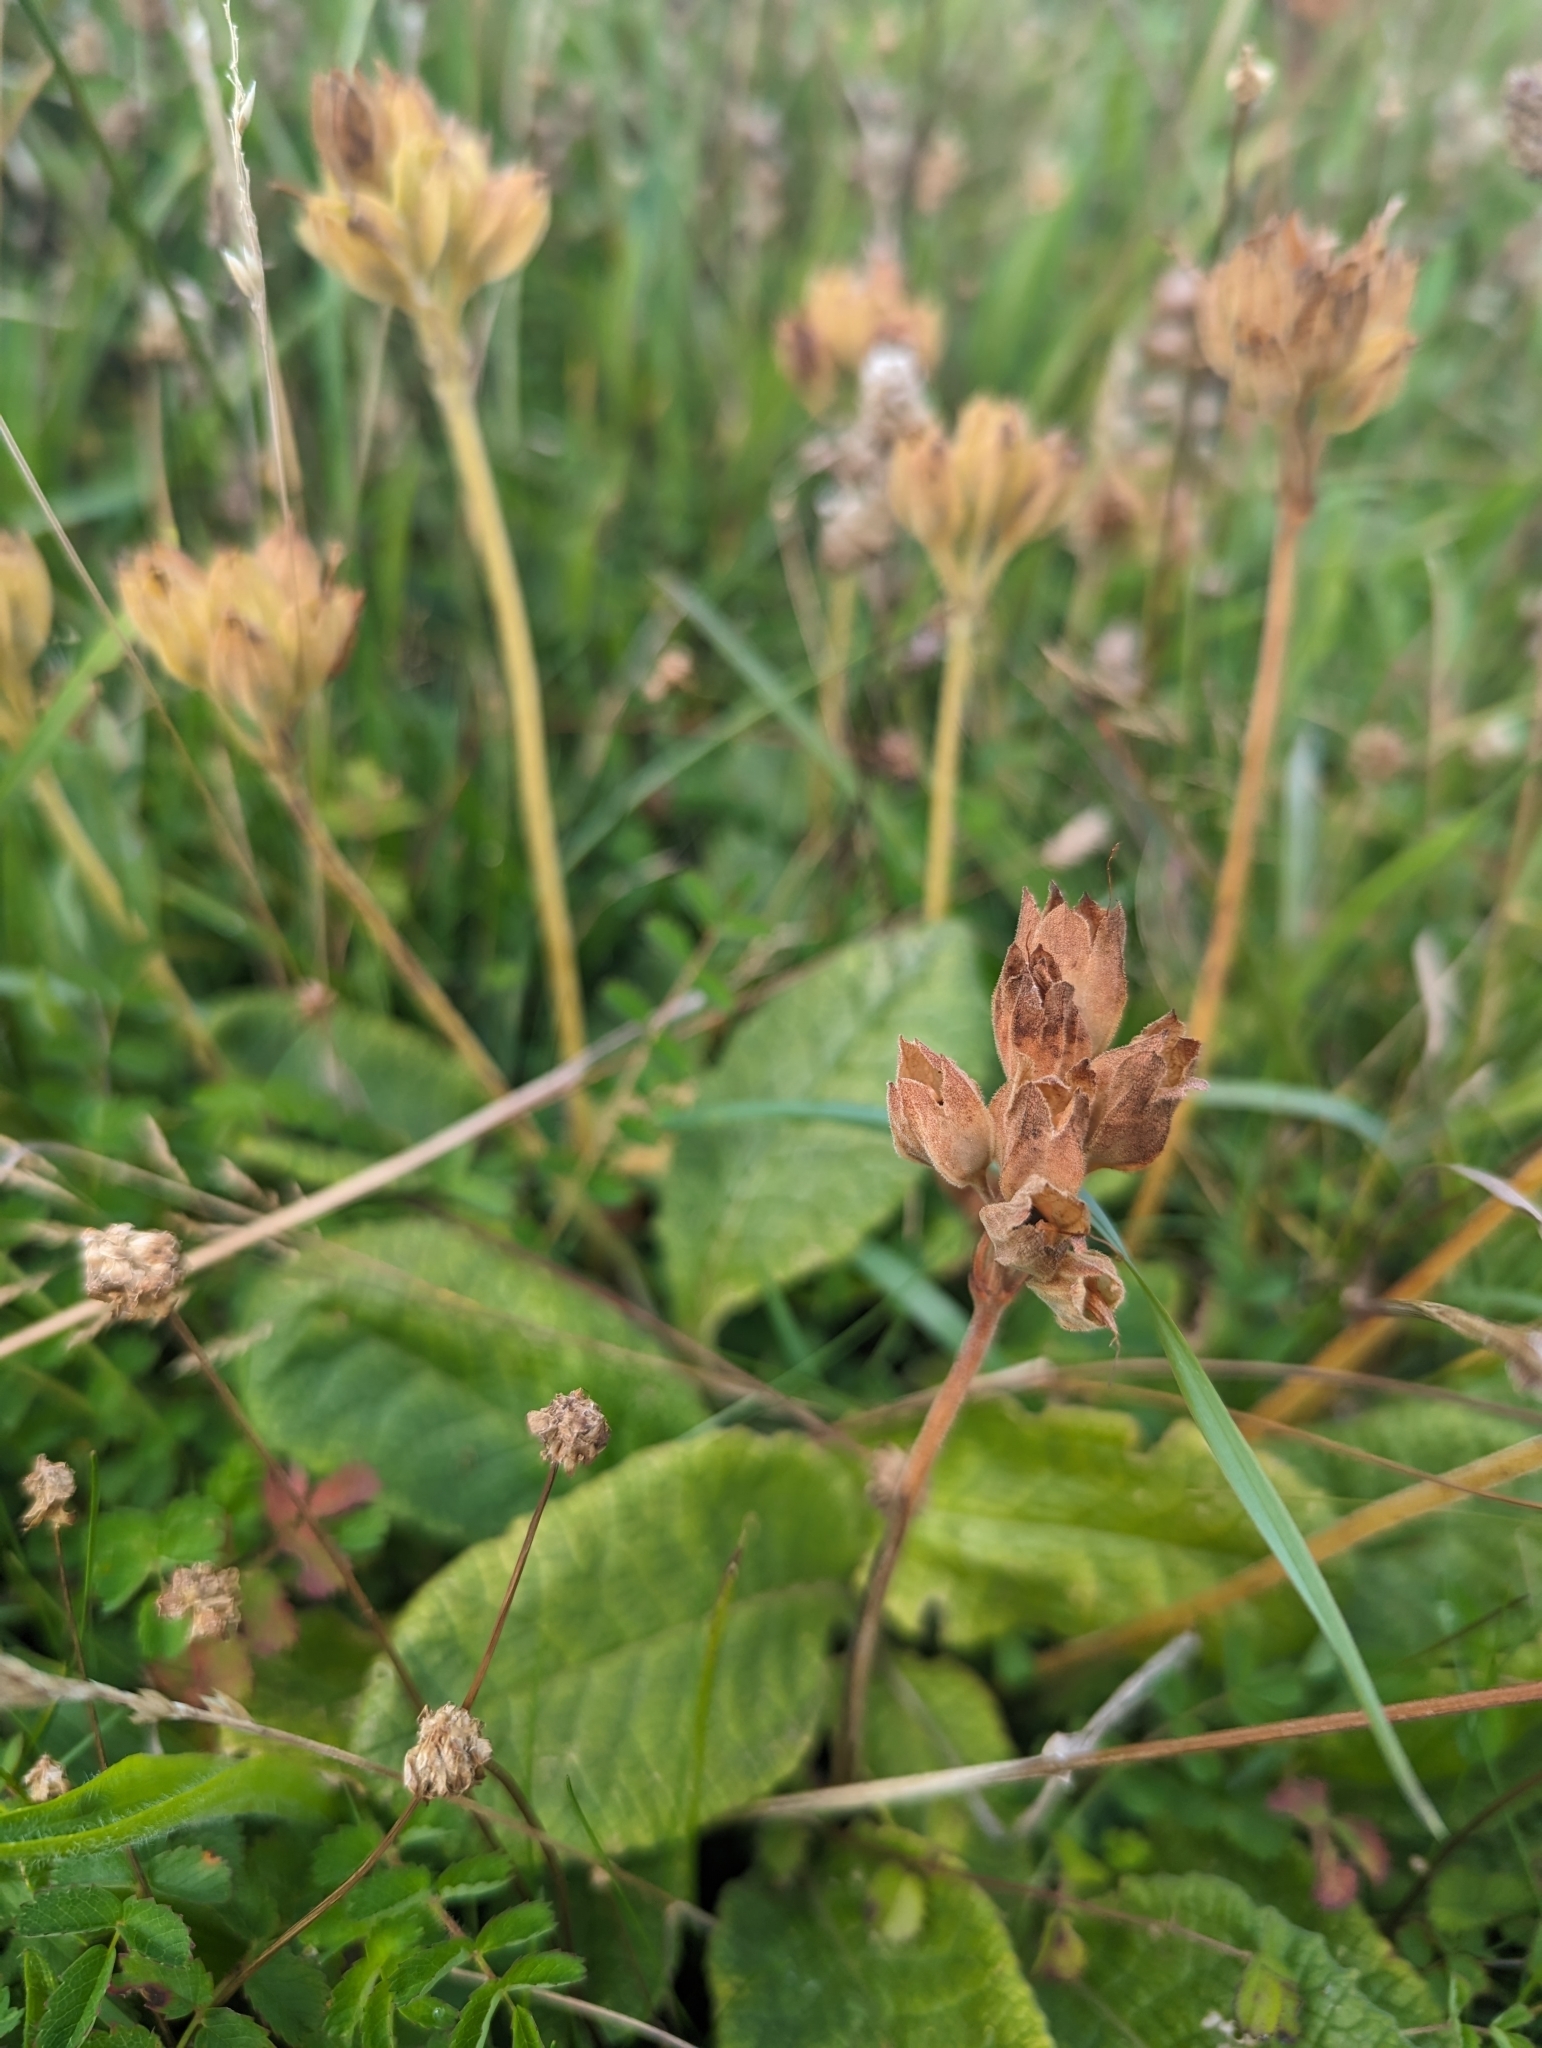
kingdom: Plantae
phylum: Tracheophyta
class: Magnoliopsida
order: Ericales
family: Primulaceae
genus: Primula
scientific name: Primula veris
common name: Cowslip
